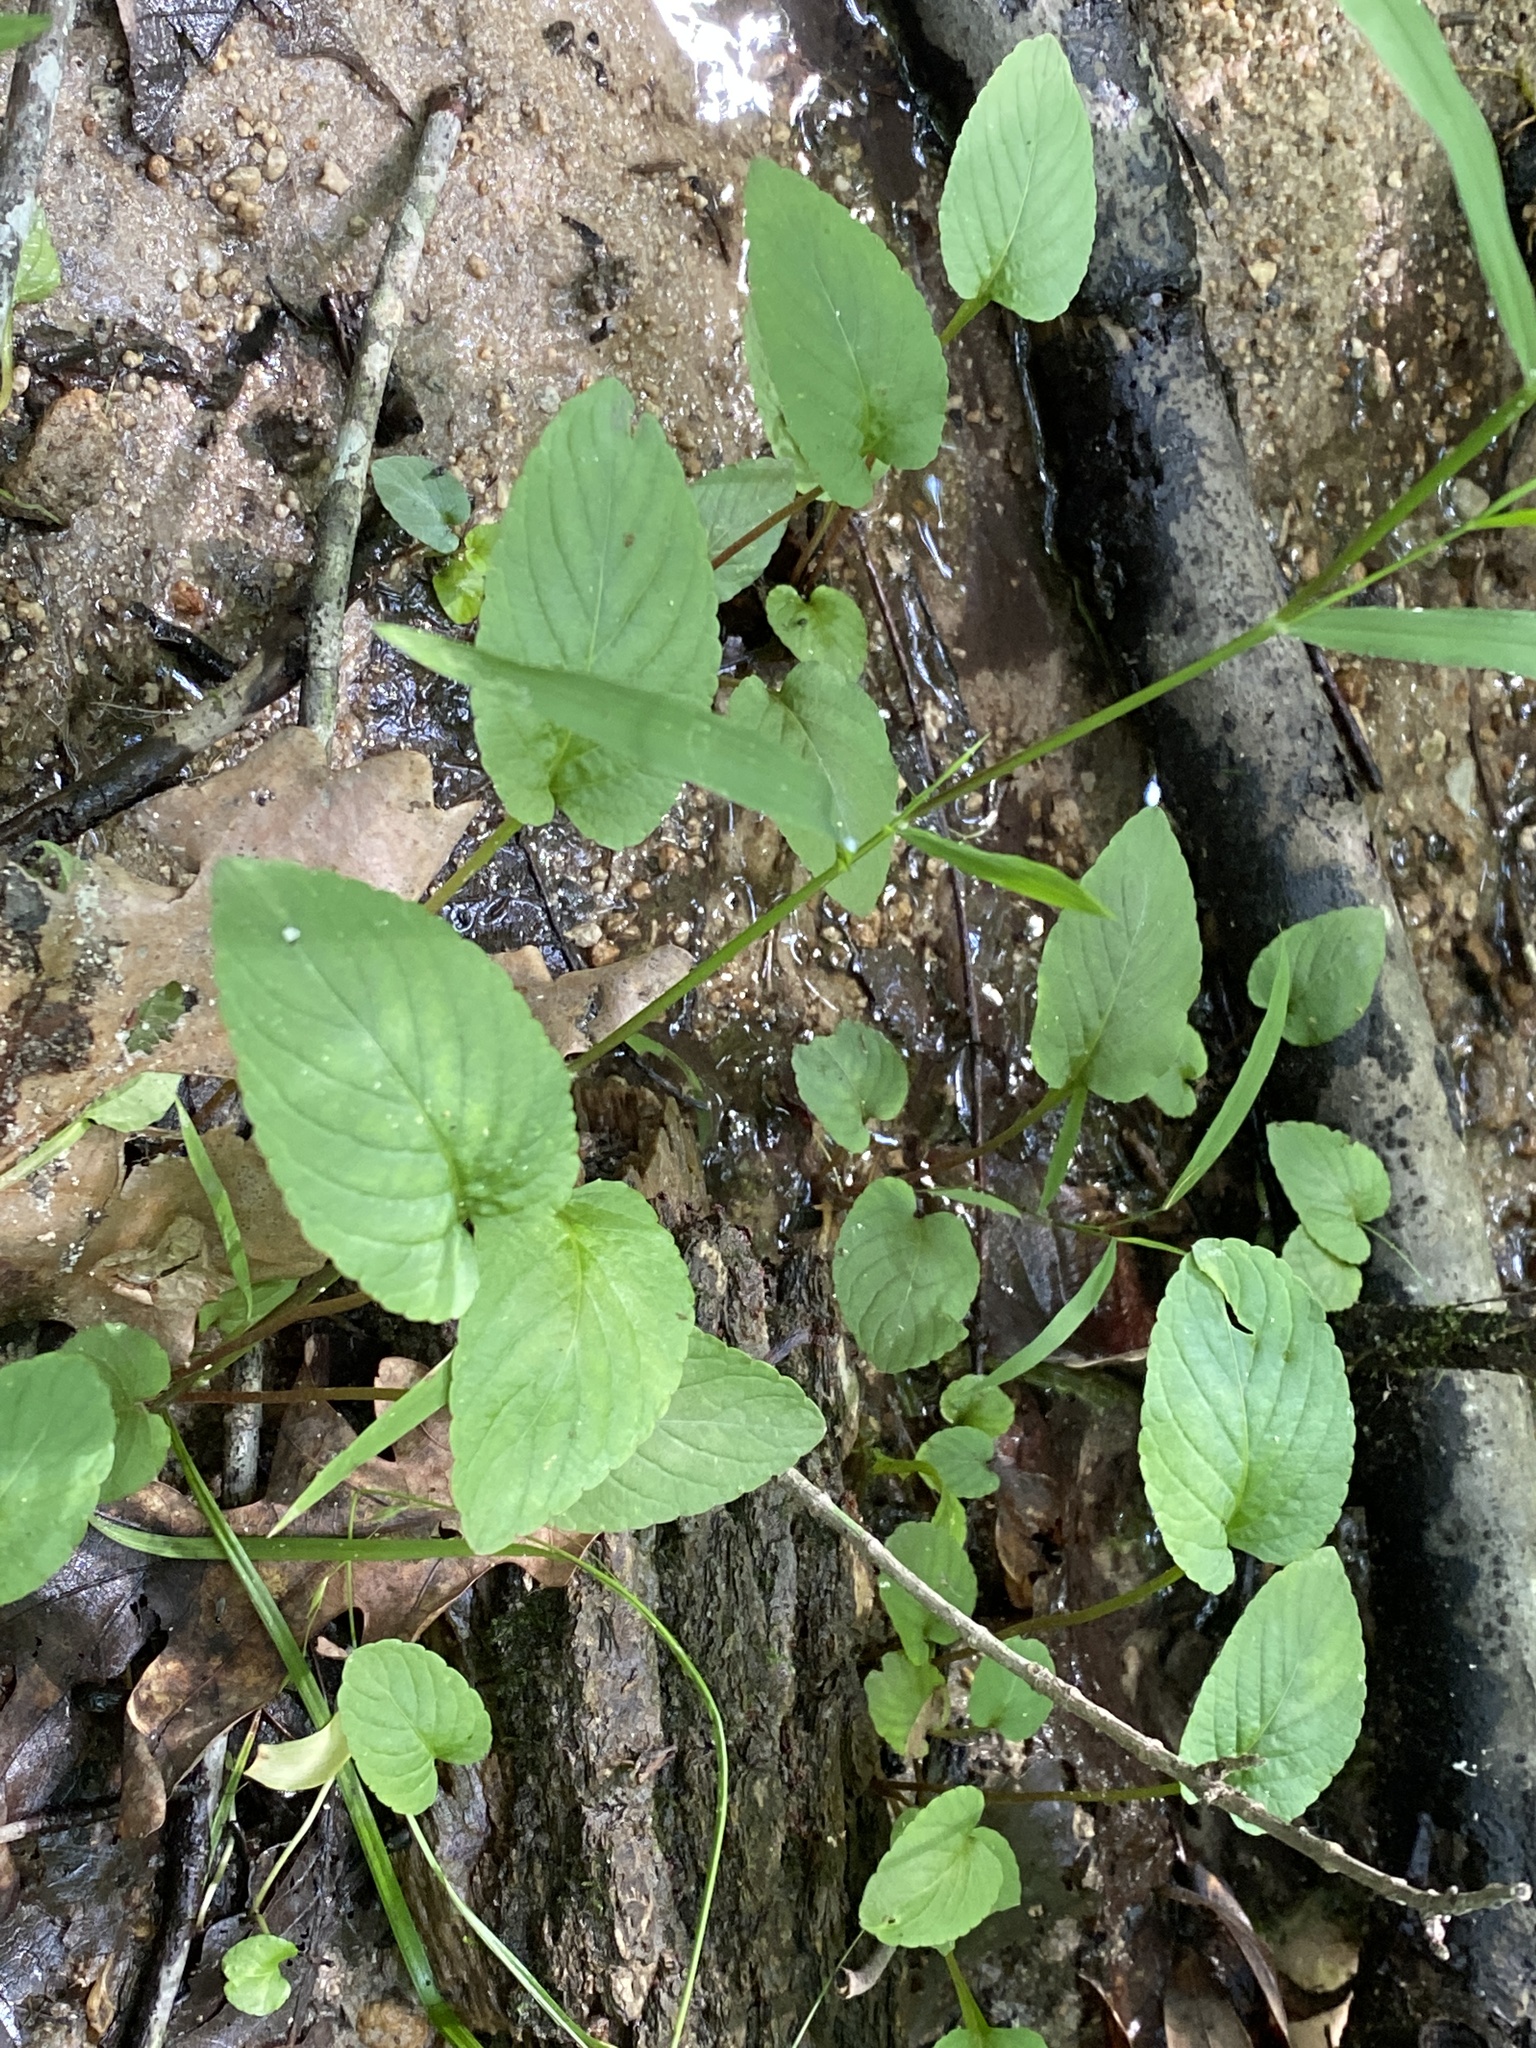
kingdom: Plantae
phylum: Tracheophyta
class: Magnoliopsida
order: Malpighiales
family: Violaceae
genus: Viola
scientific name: Viola primulifolia
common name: Primrose-leaf violet
